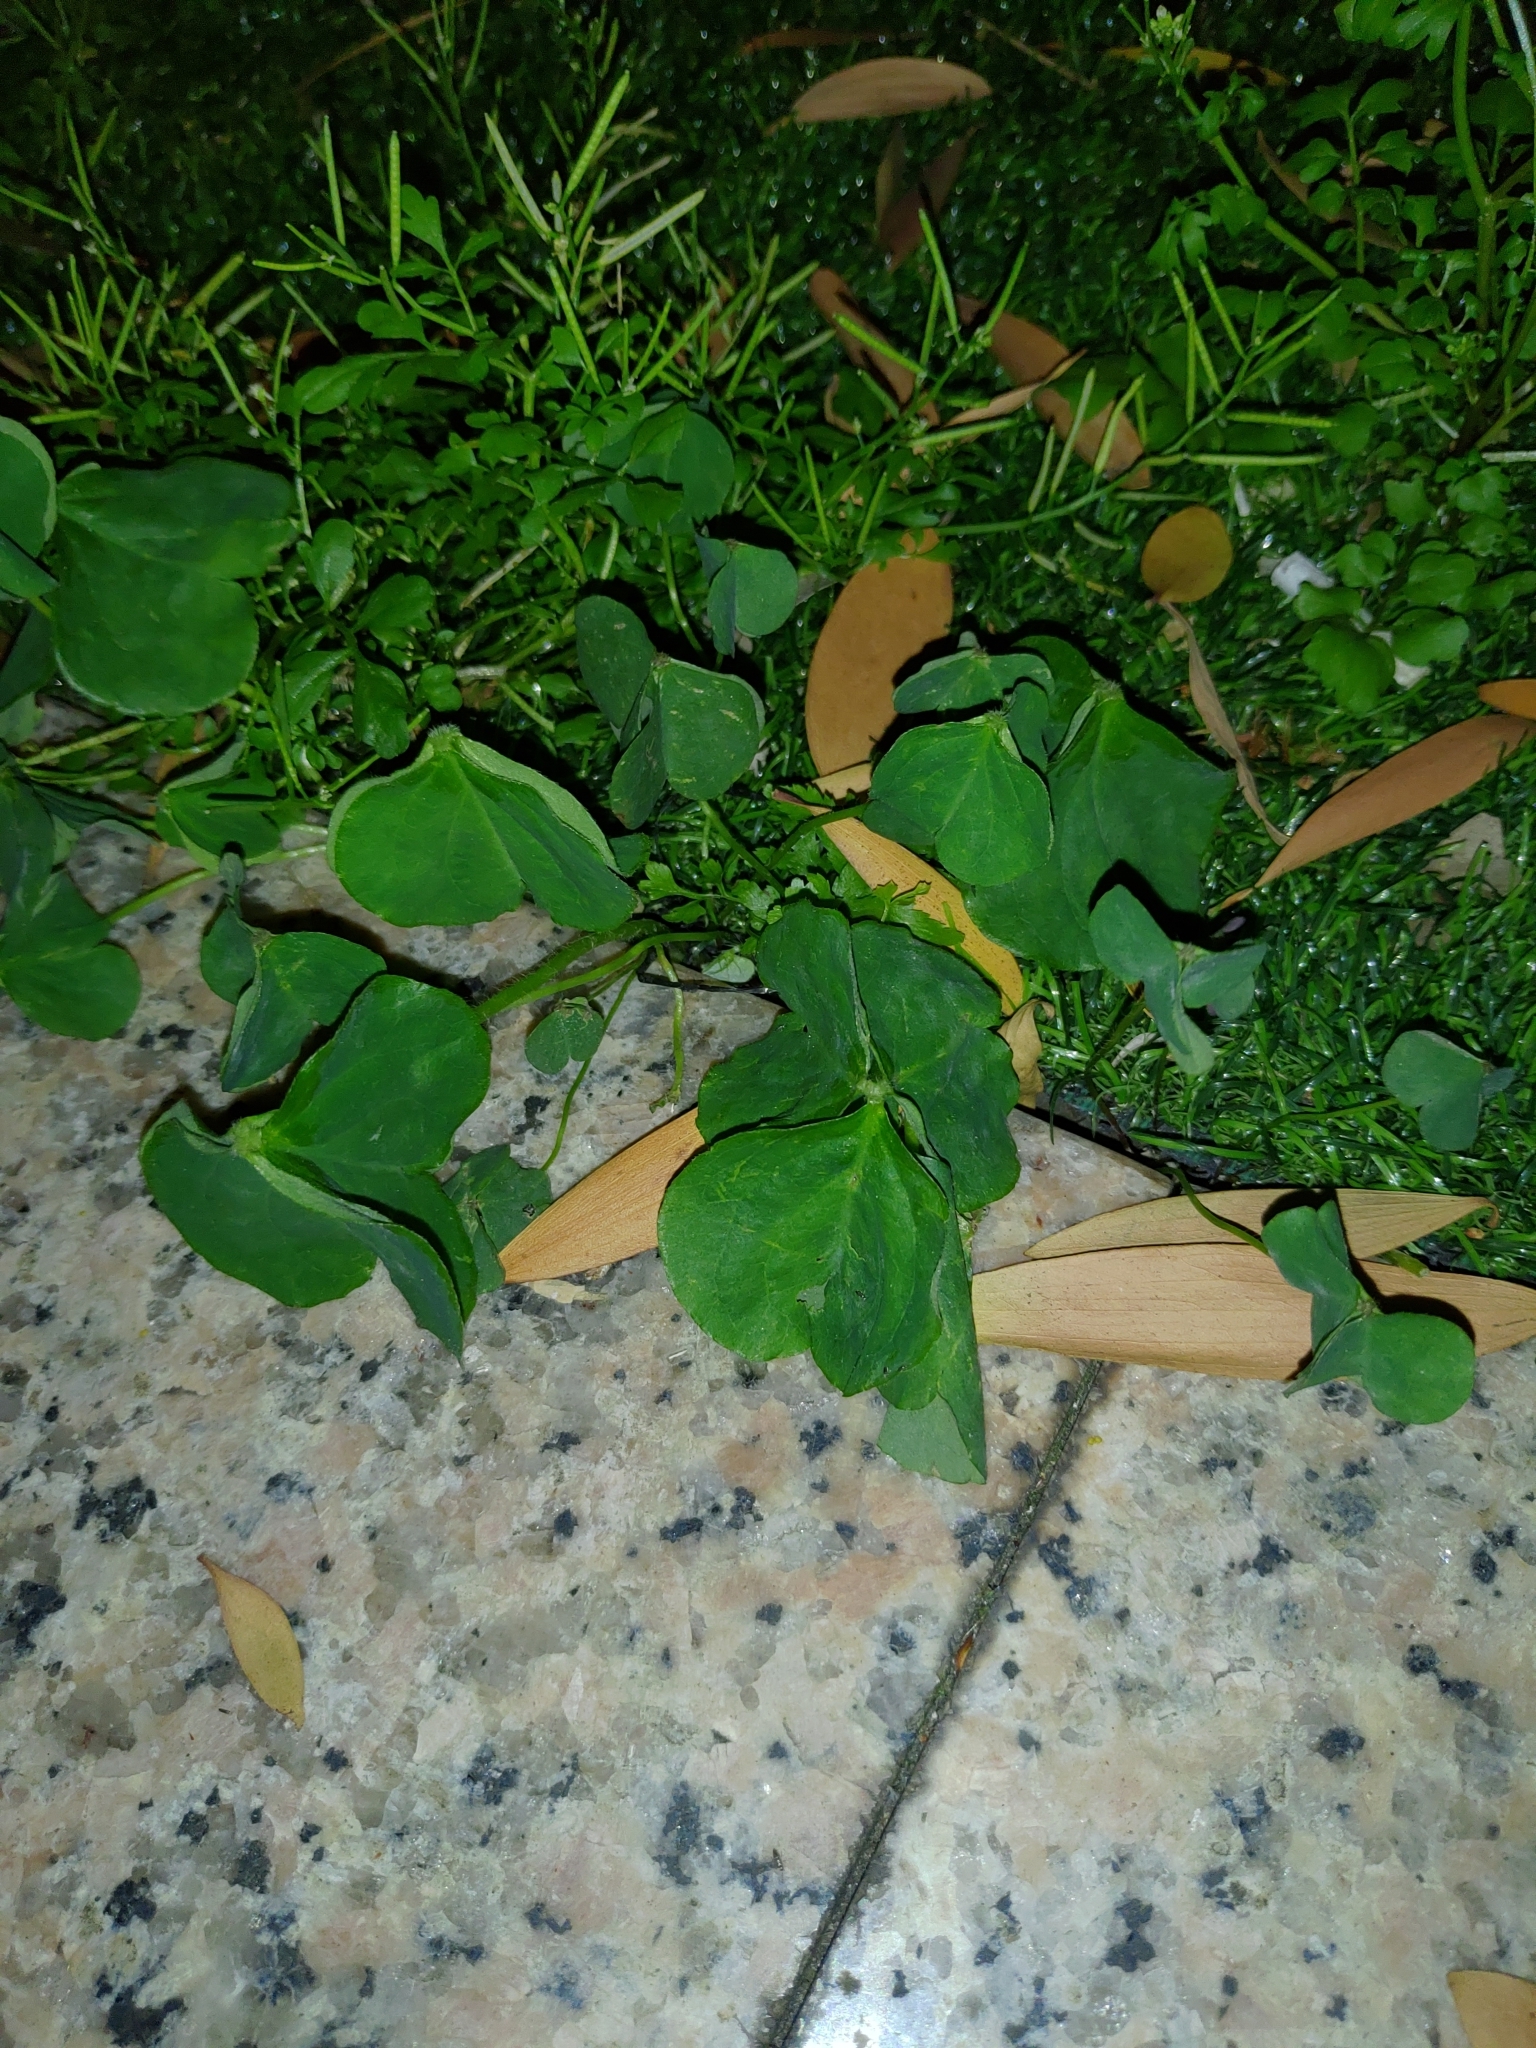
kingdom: Plantae
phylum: Tracheophyta
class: Magnoliopsida
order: Oxalidales
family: Oxalidaceae
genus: Oxalis
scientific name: Oxalis debilis
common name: Large-flowered pink-sorrel
